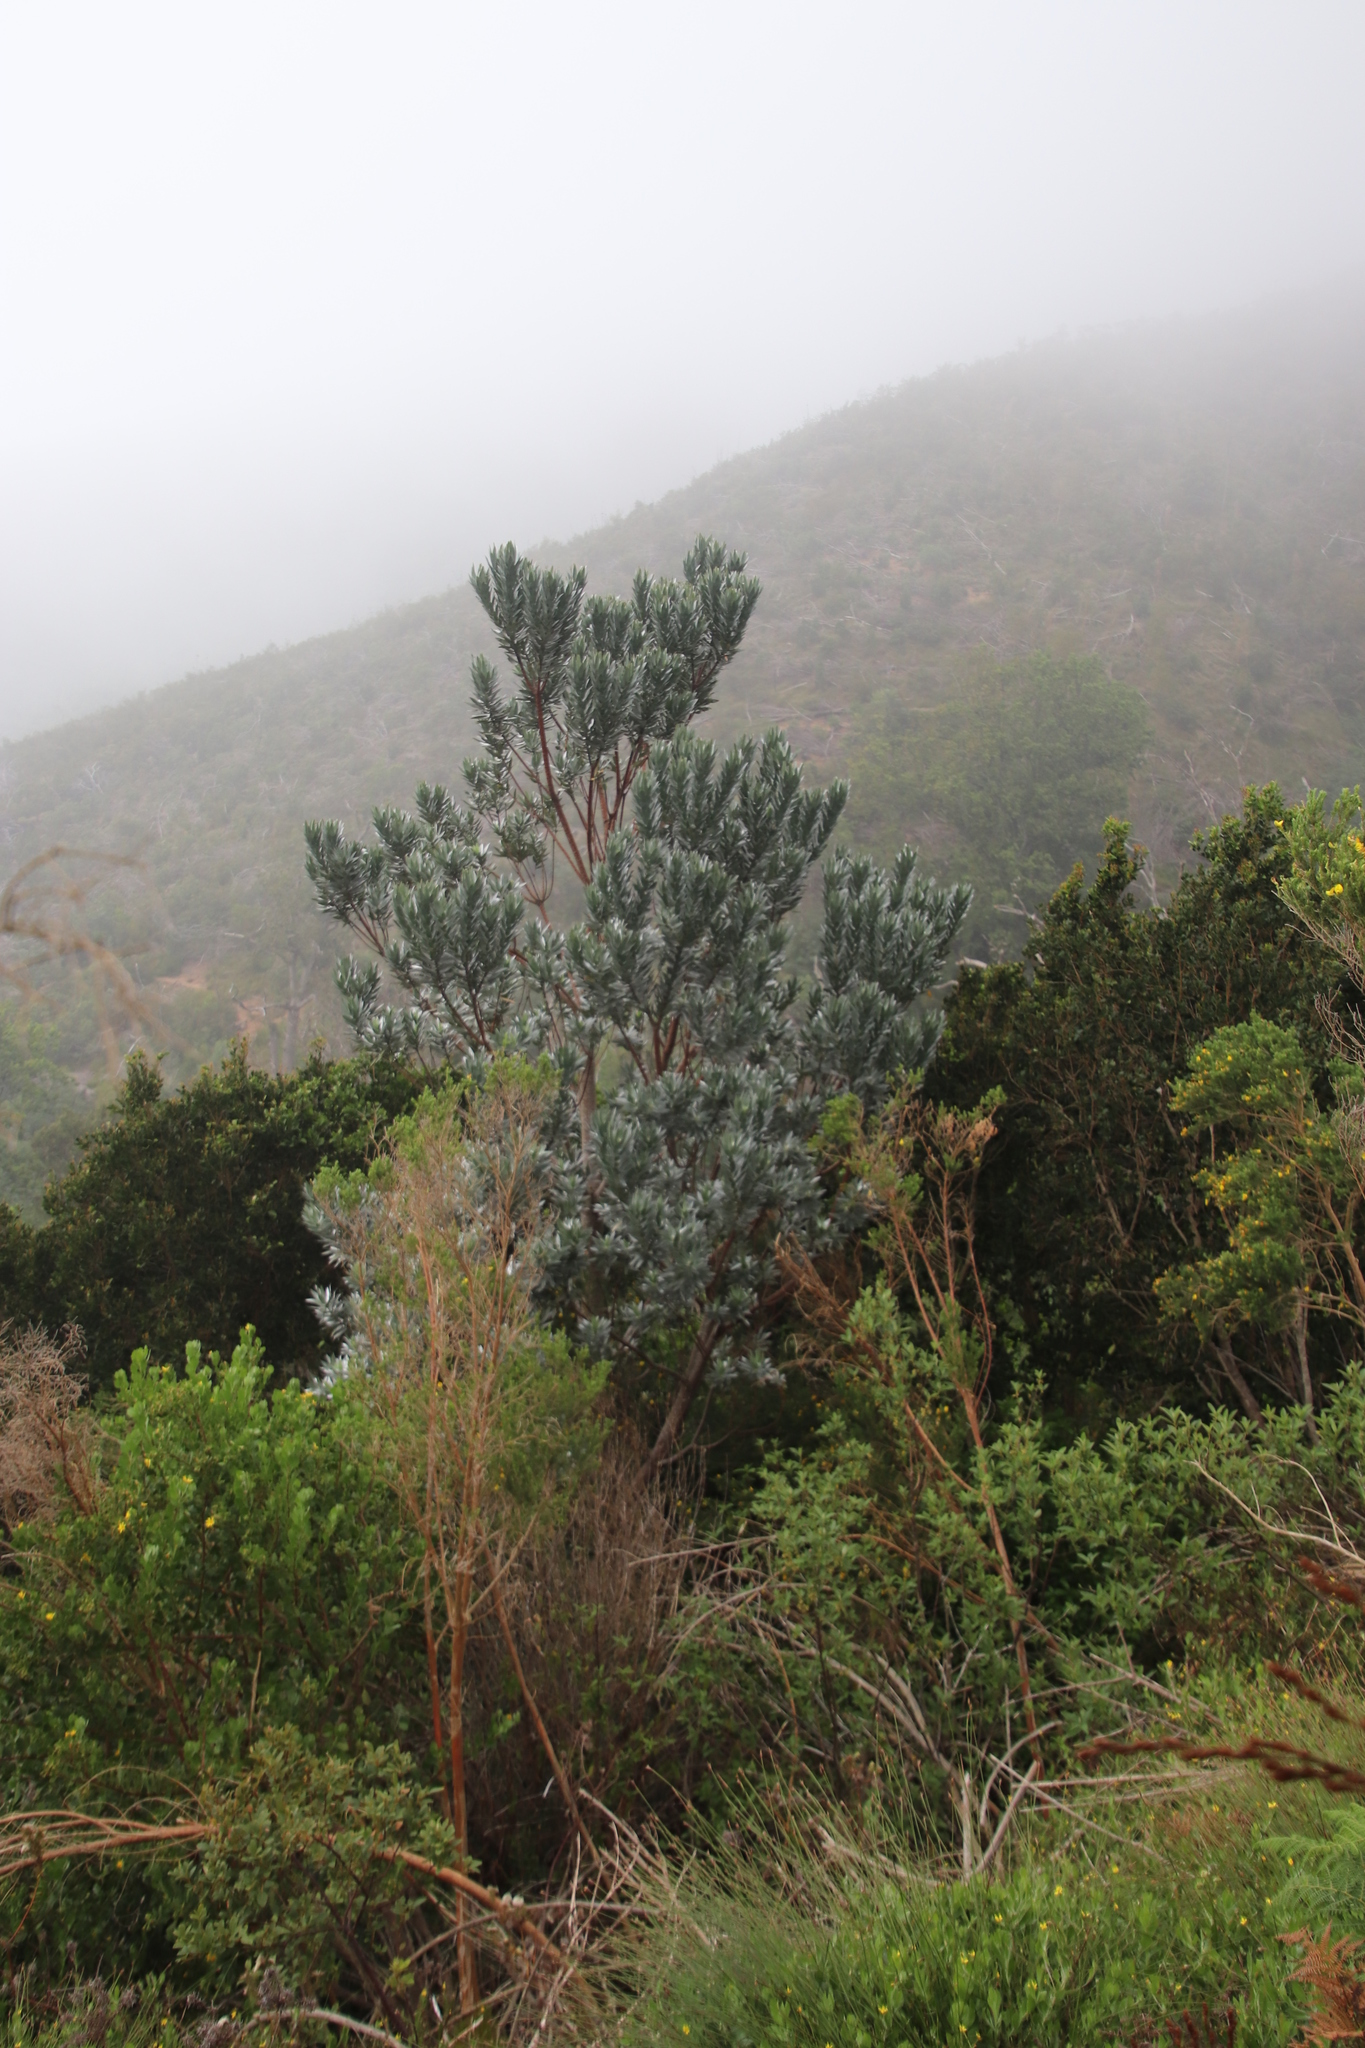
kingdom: Plantae
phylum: Tracheophyta
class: Magnoliopsida
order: Proteales
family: Proteaceae
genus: Leucadendron
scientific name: Leucadendron argenteum
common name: Cape silver tree
